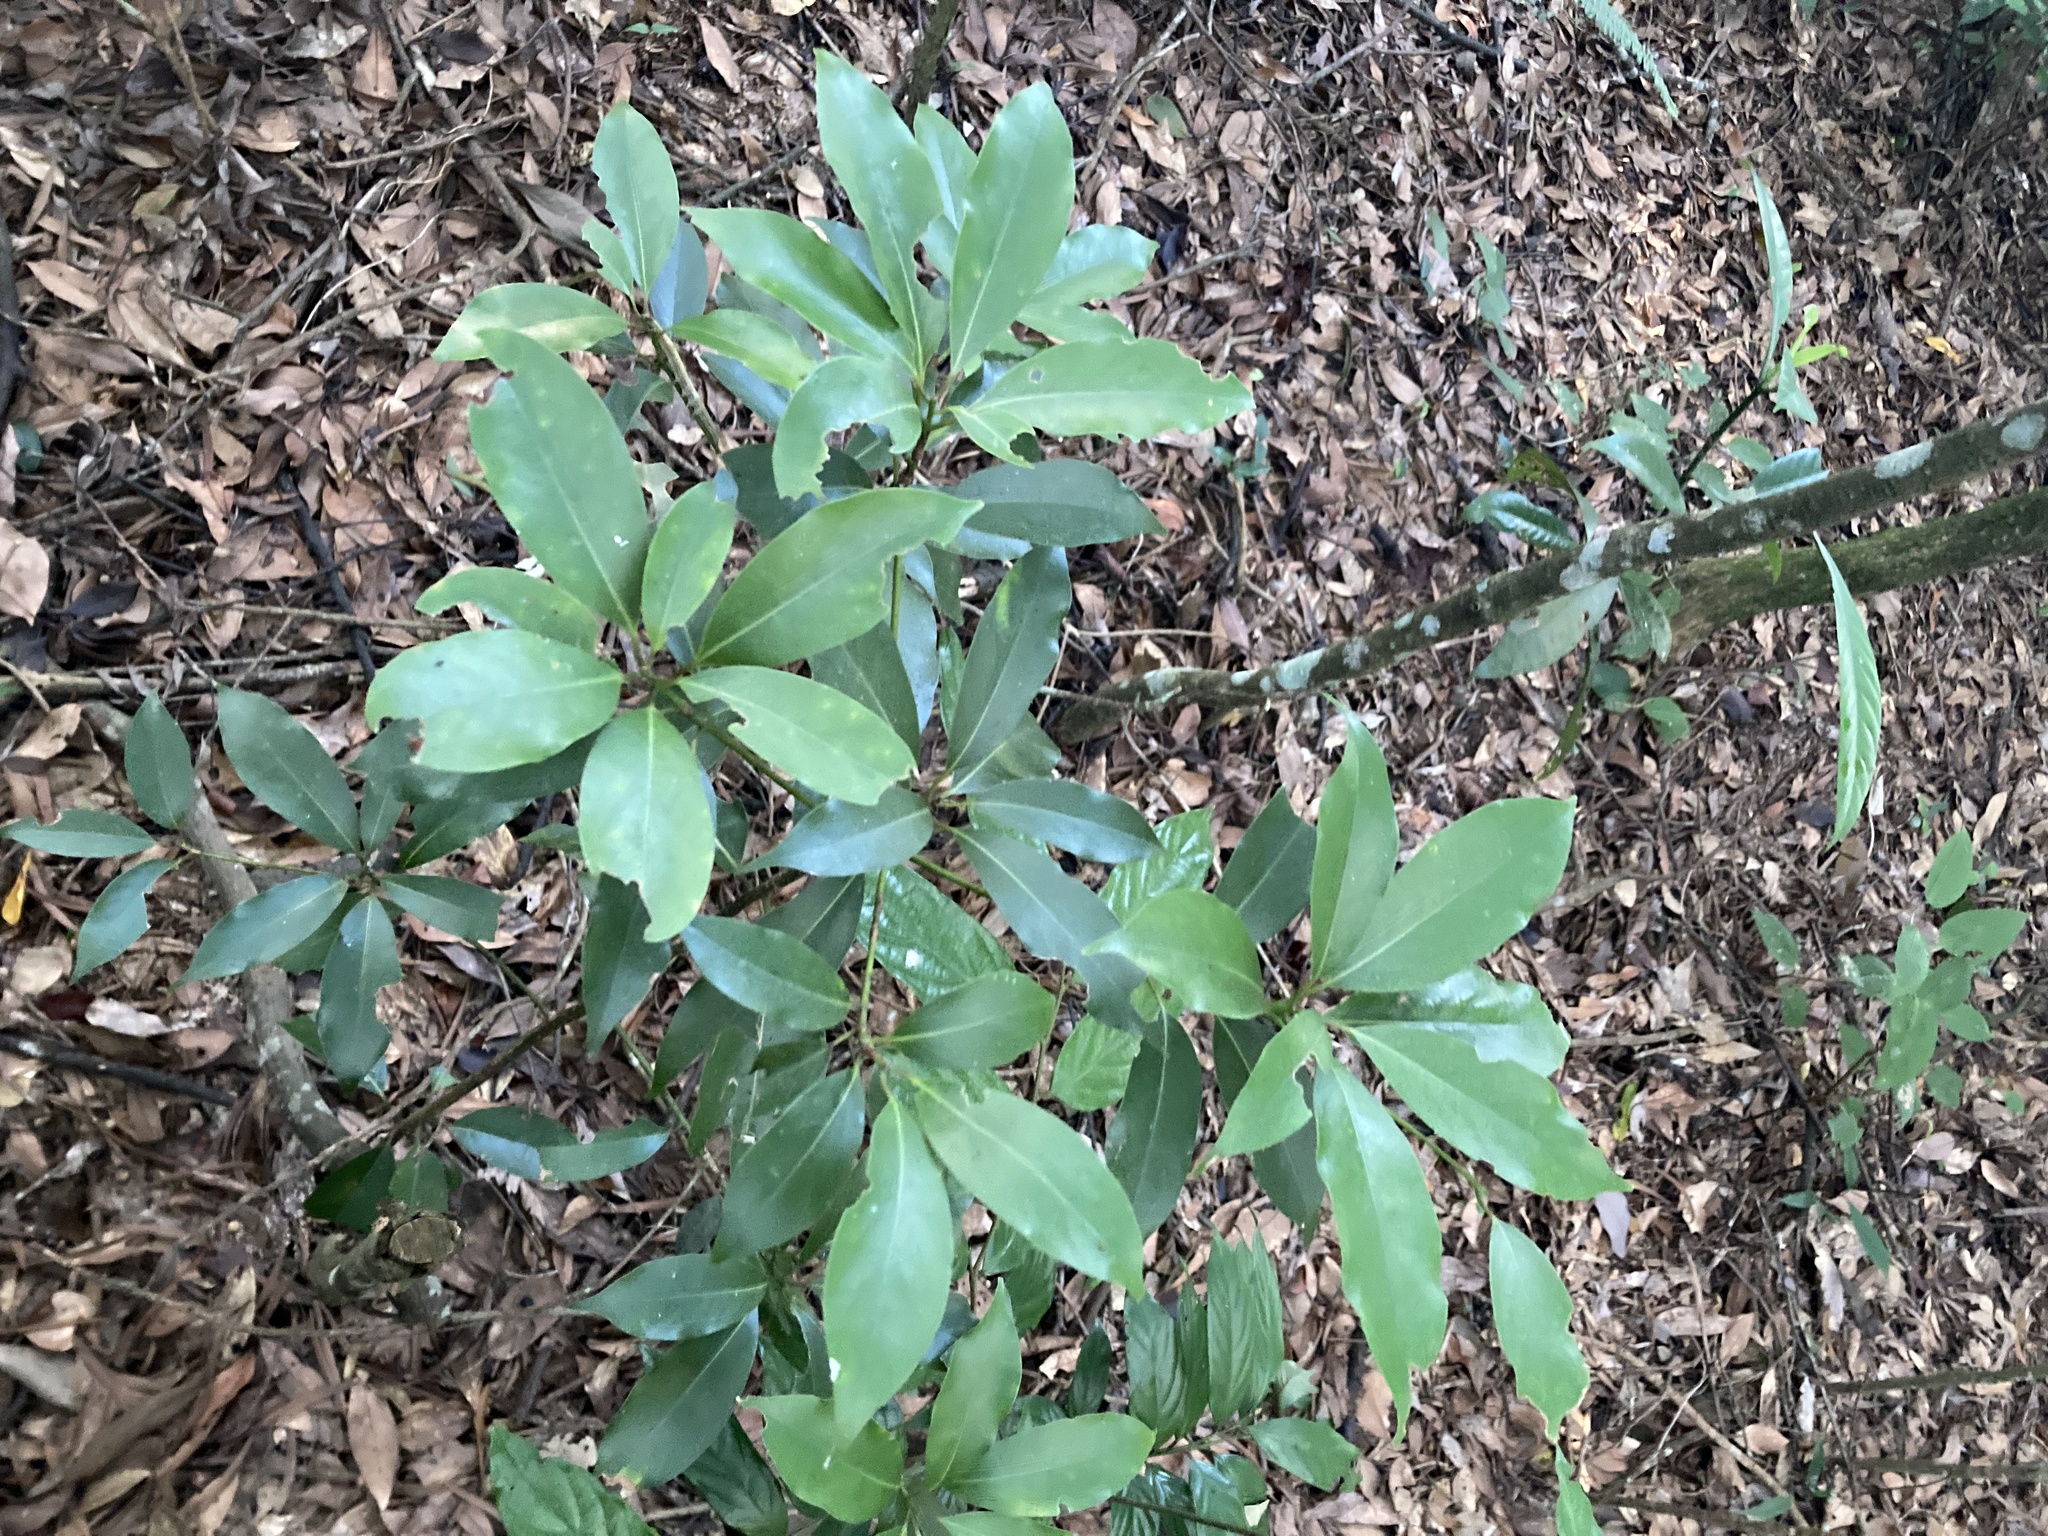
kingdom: Plantae
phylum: Tracheophyta
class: Magnoliopsida
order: Laurales
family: Lauraceae
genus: Machilus
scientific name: Machilus thunbergii
